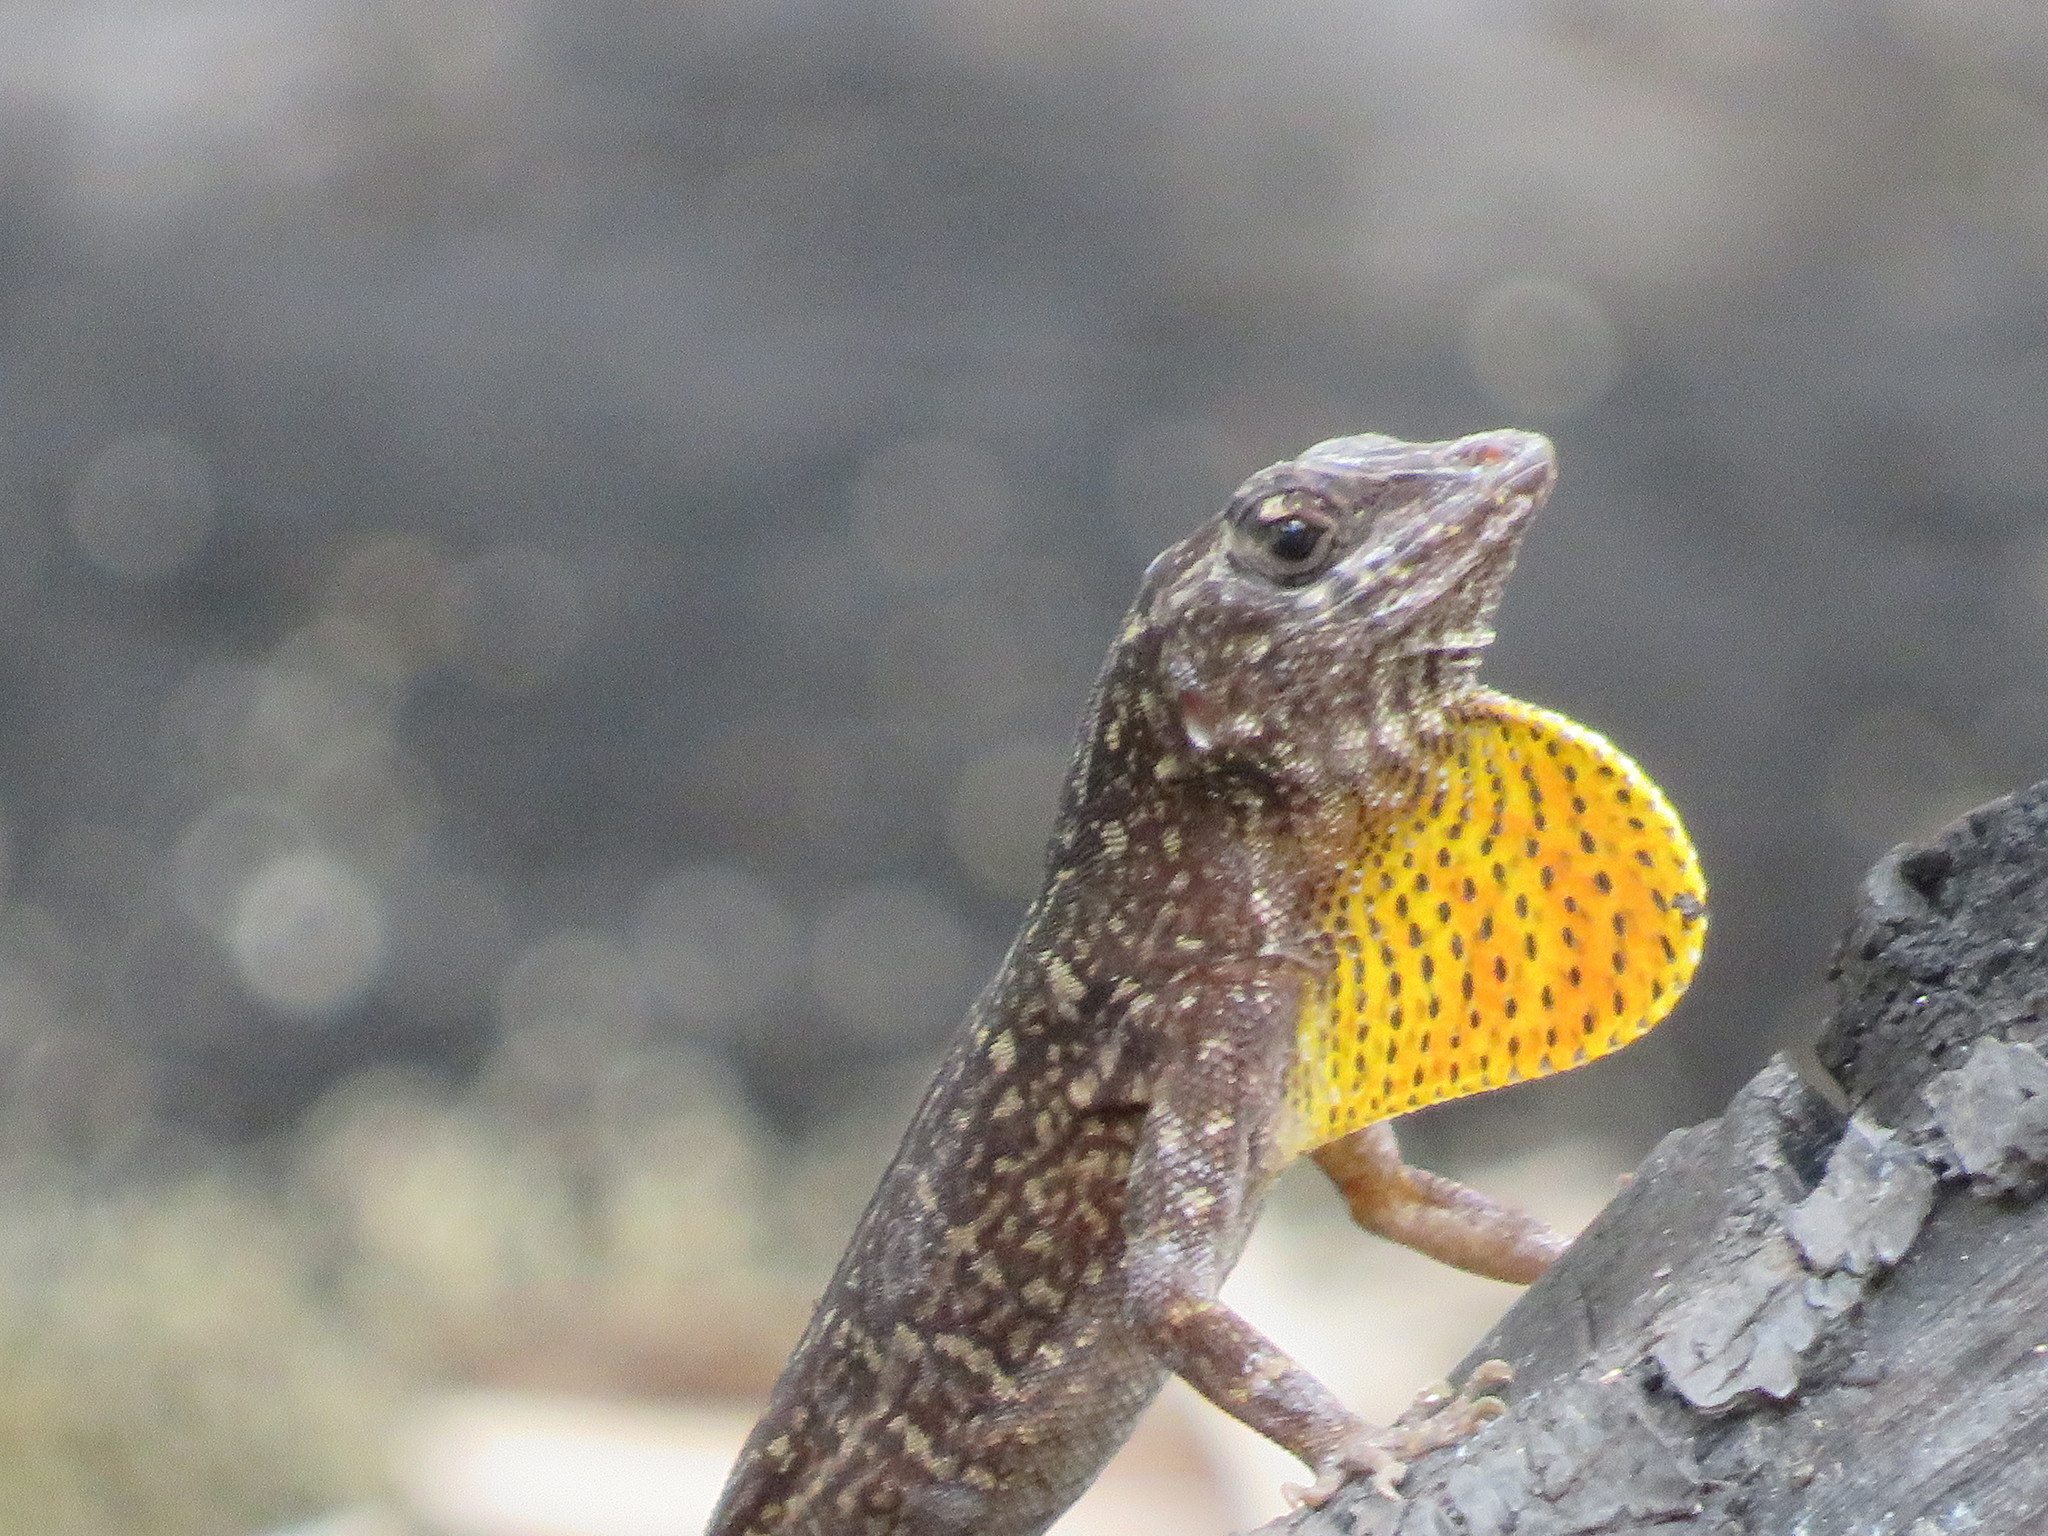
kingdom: Animalia
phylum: Chordata
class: Squamata
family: Dactyloidae
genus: Anolis
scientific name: Anolis sagrei
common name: Brown anole
